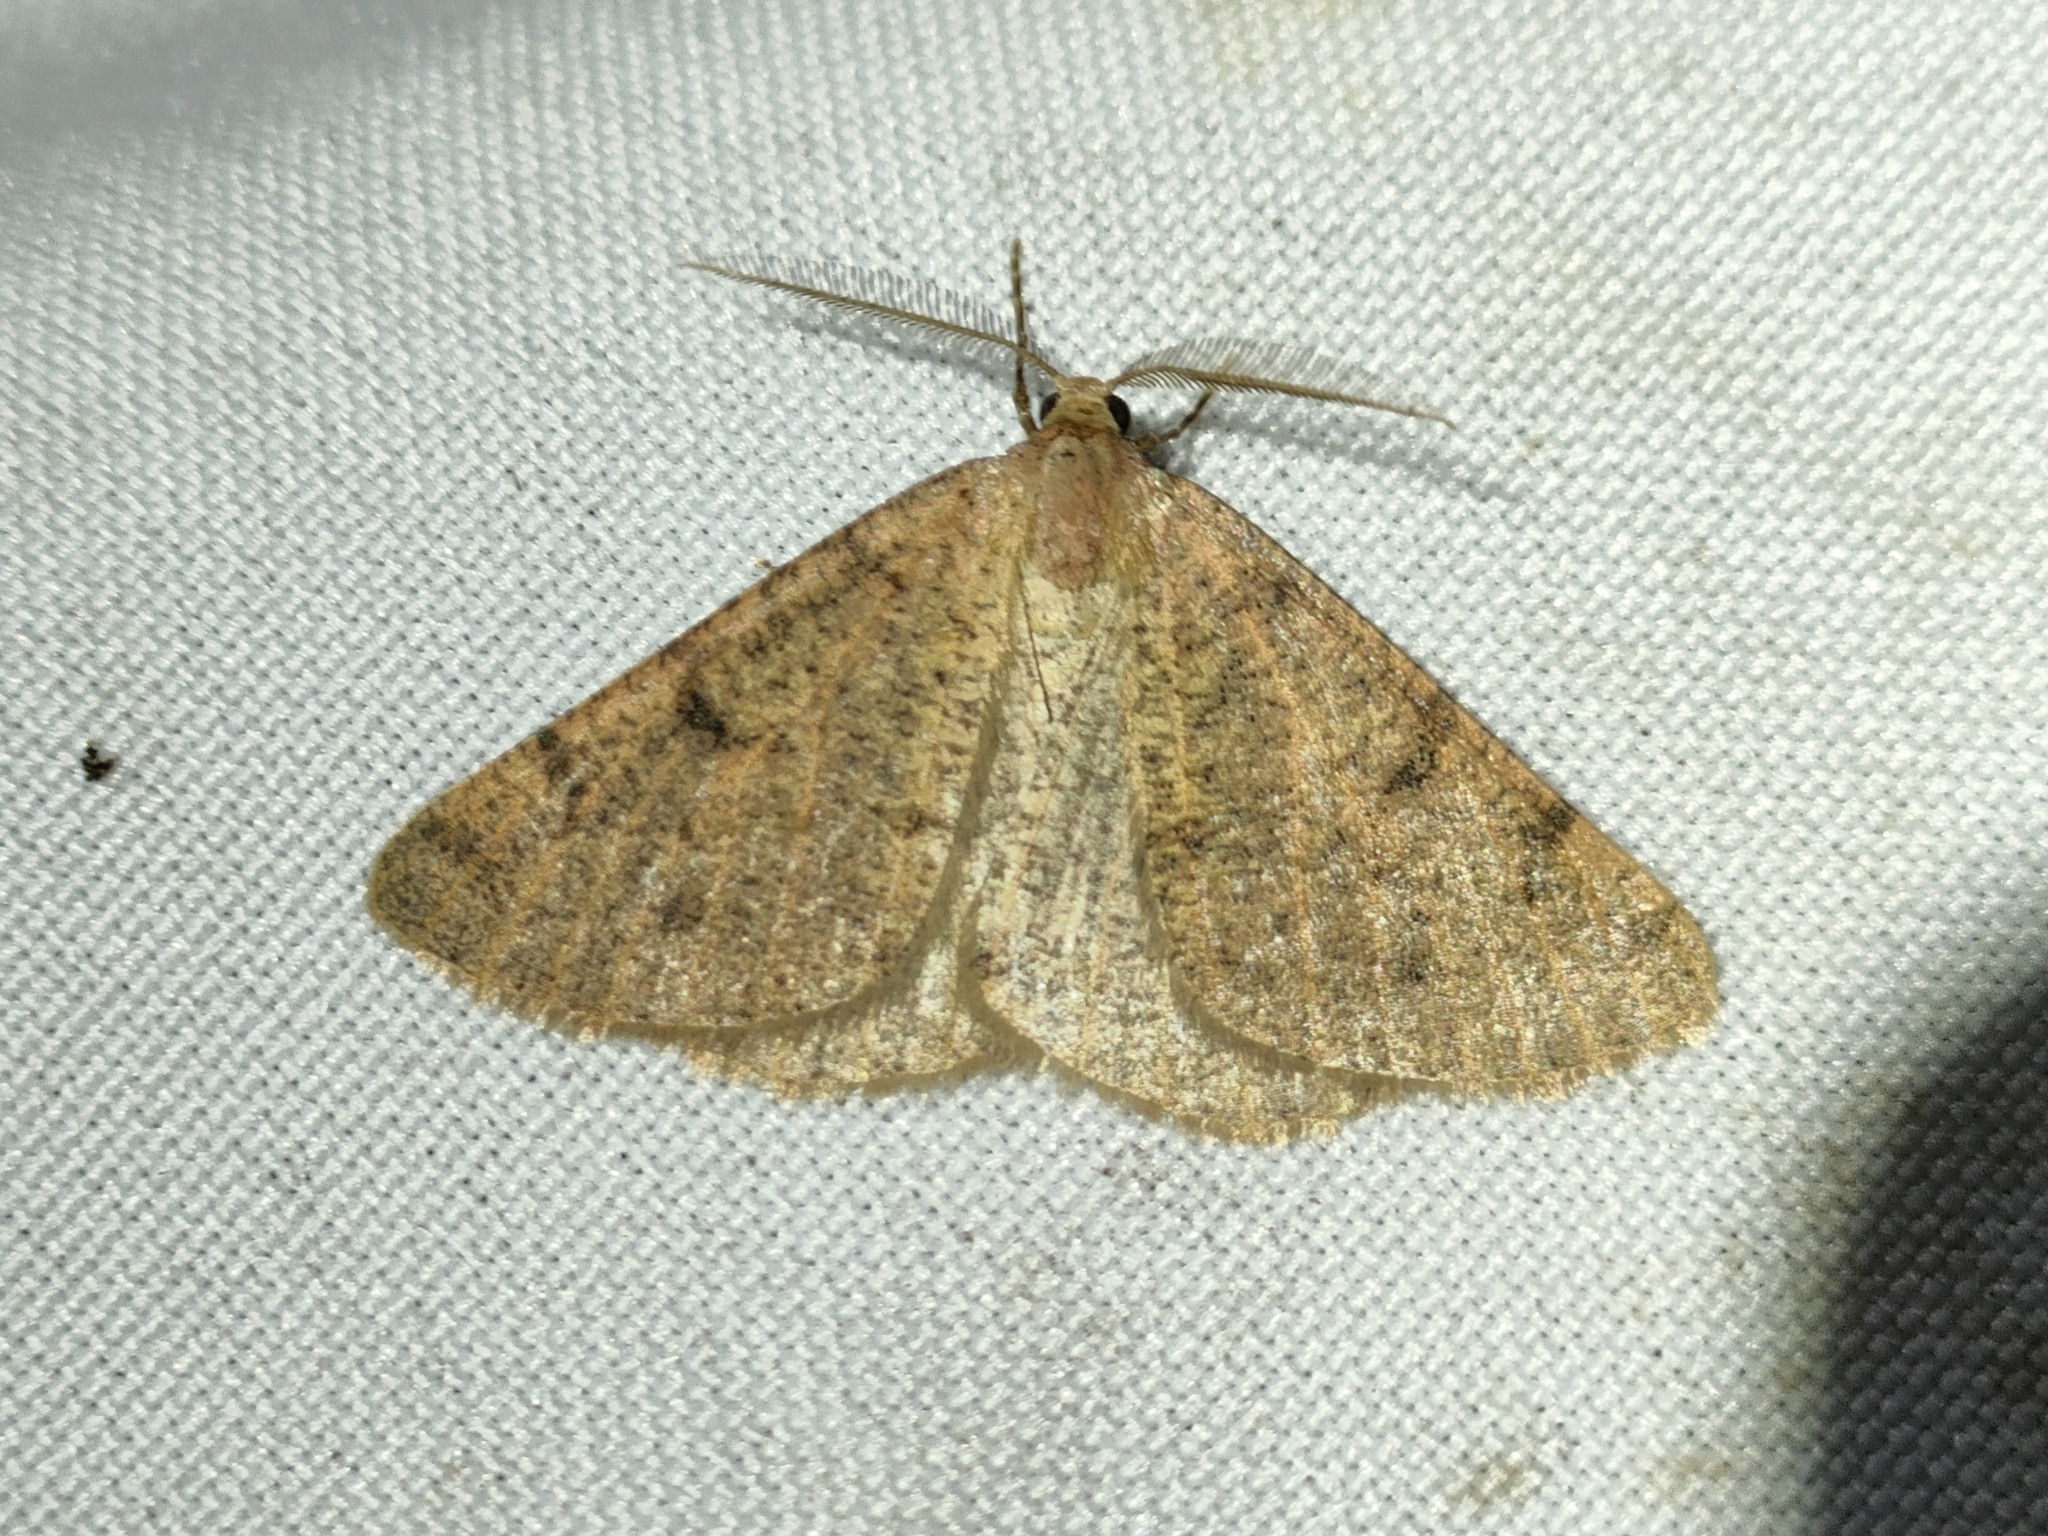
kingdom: Animalia
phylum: Arthropoda
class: Insecta
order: Lepidoptera
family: Geometridae
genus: Isturgia
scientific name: Isturgia miniosaria
